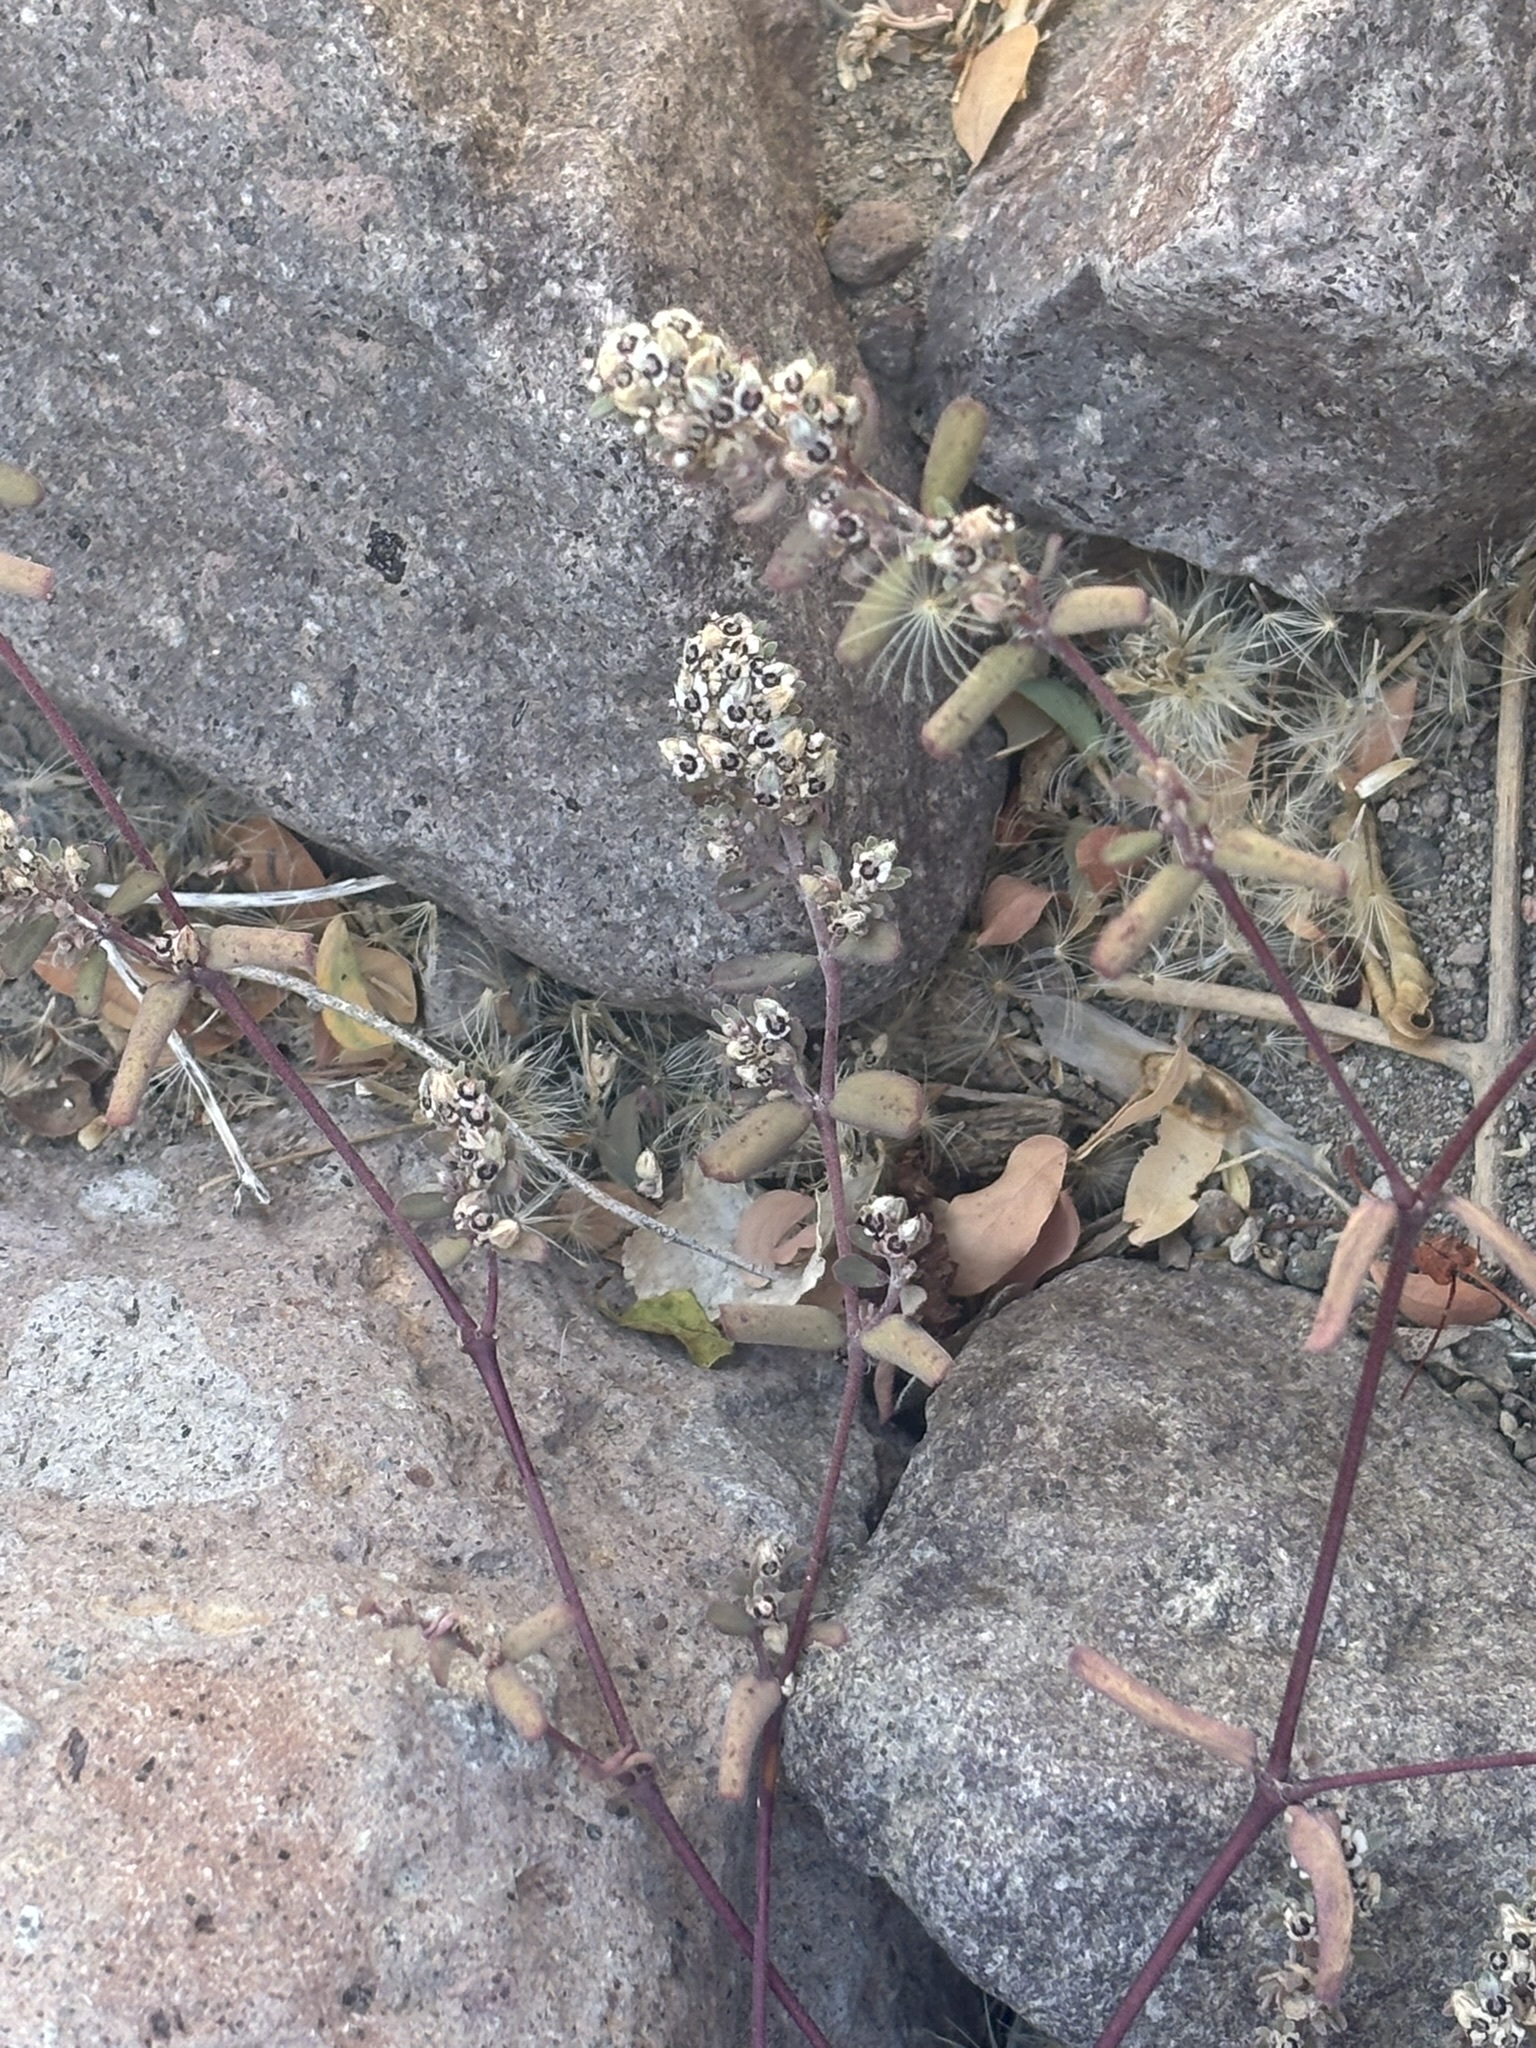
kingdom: Plantae
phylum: Tracheophyta
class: Magnoliopsida
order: Malpighiales
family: Euphorbiaceae
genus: Euphorbia
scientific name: Euphorbia pediculifera
